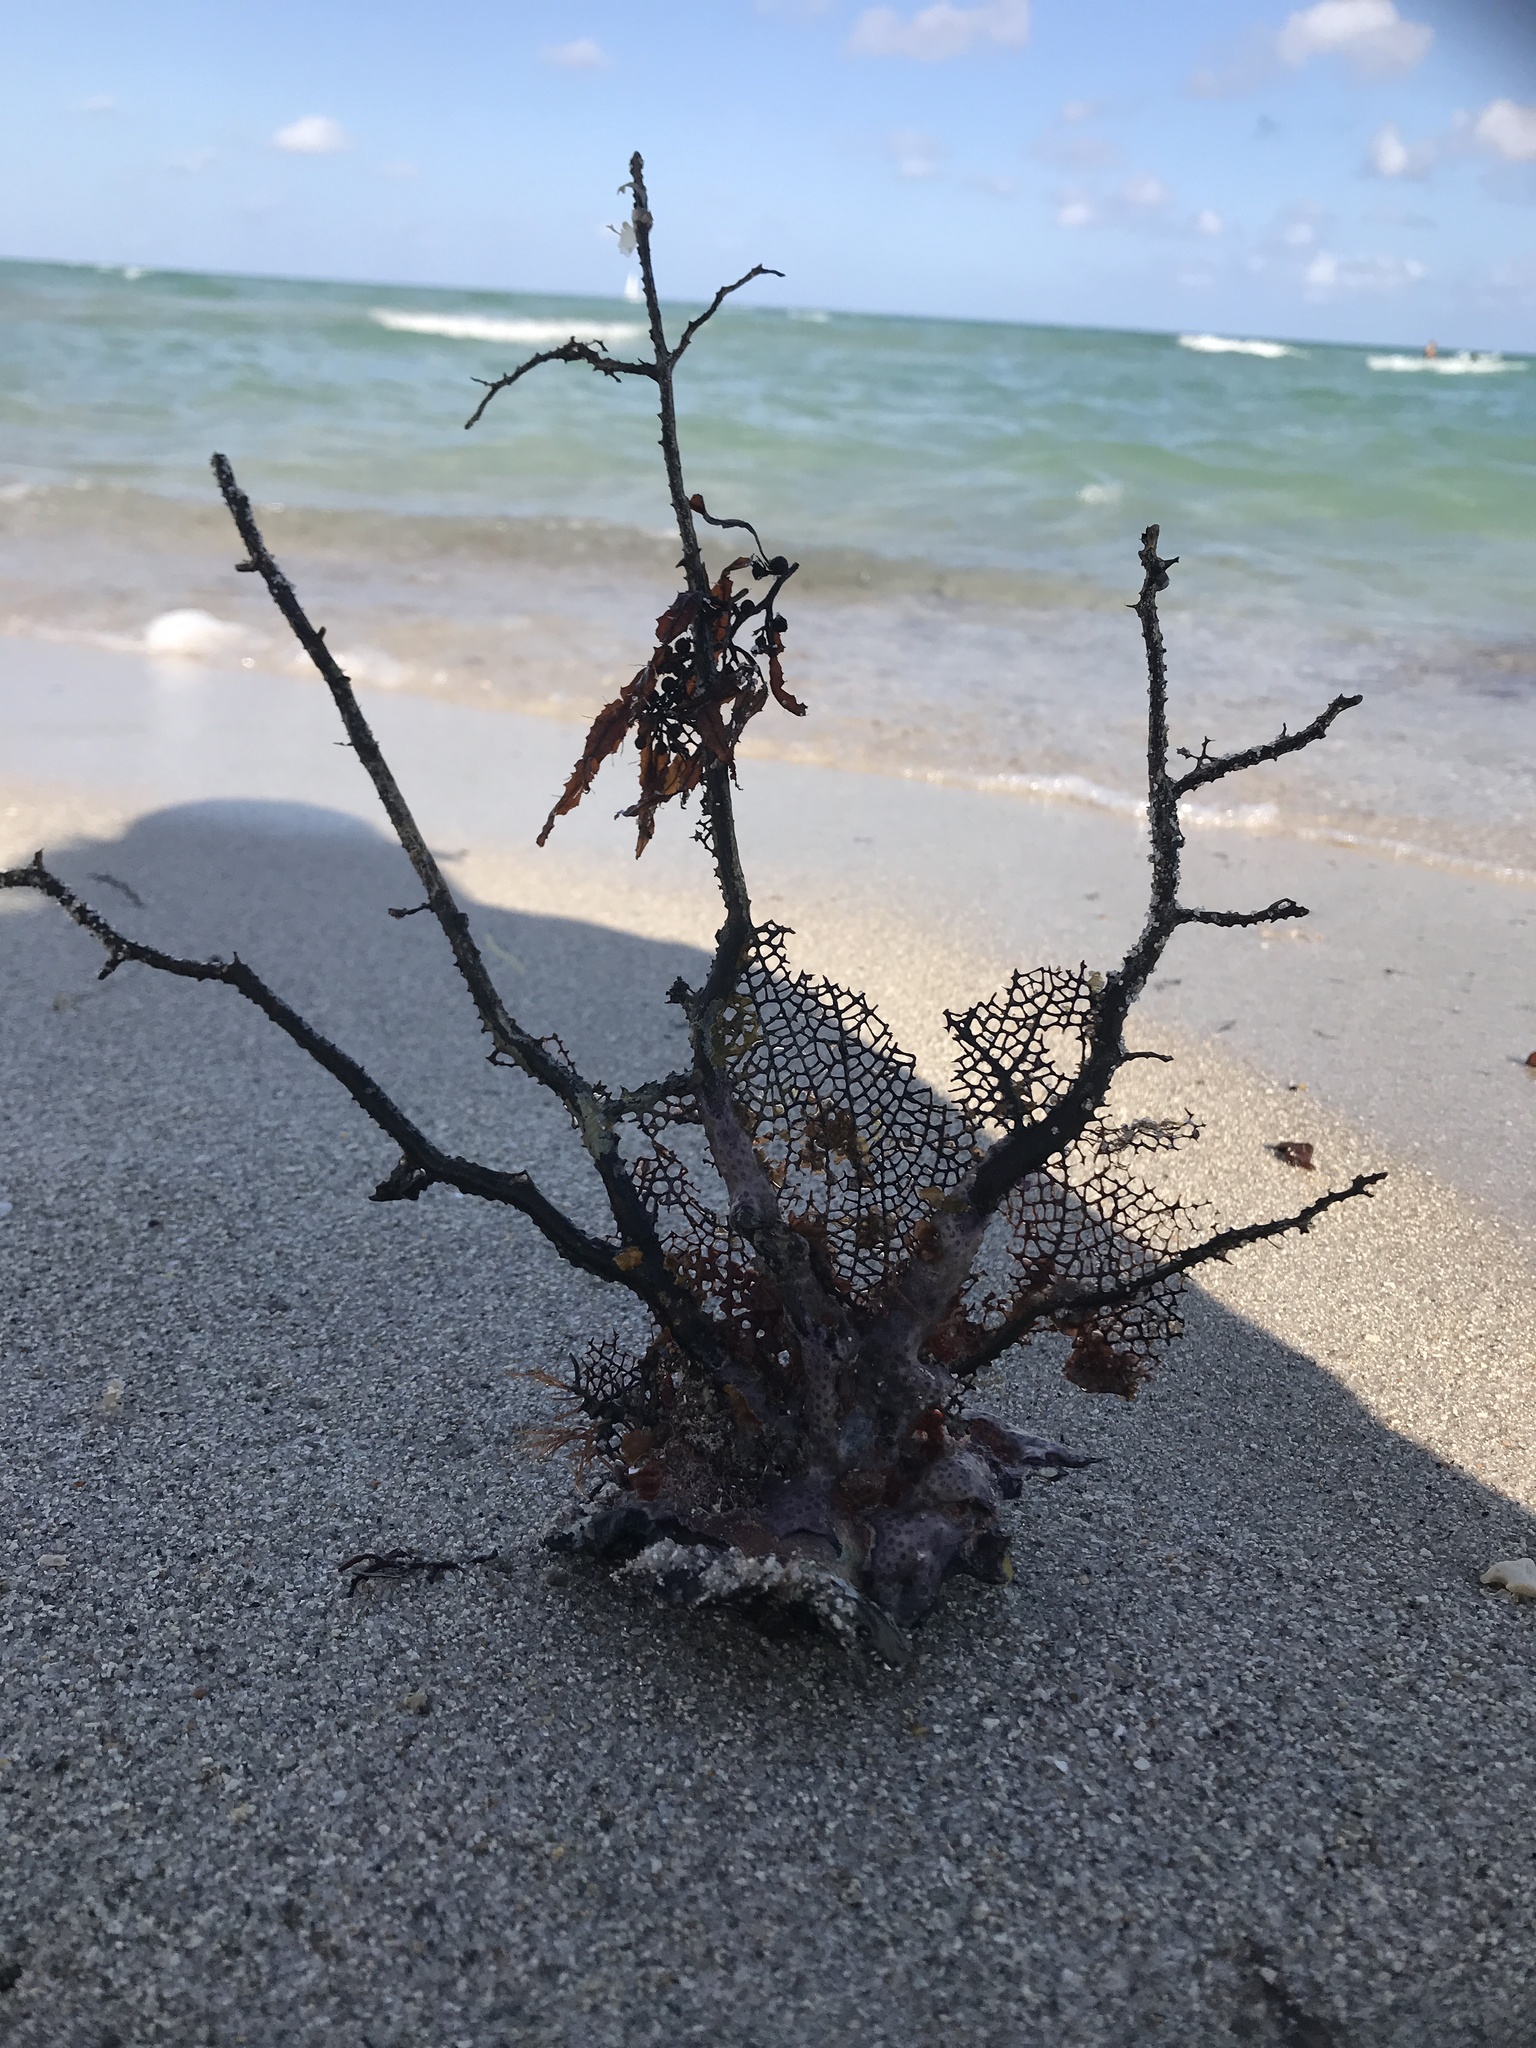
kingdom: Chromista
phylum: Ochrophyta
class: Phaeophyceae
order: Fucales
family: Sargassaceae
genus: Sargassum
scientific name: Sargassum fluitans
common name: Sargassum seaweed
